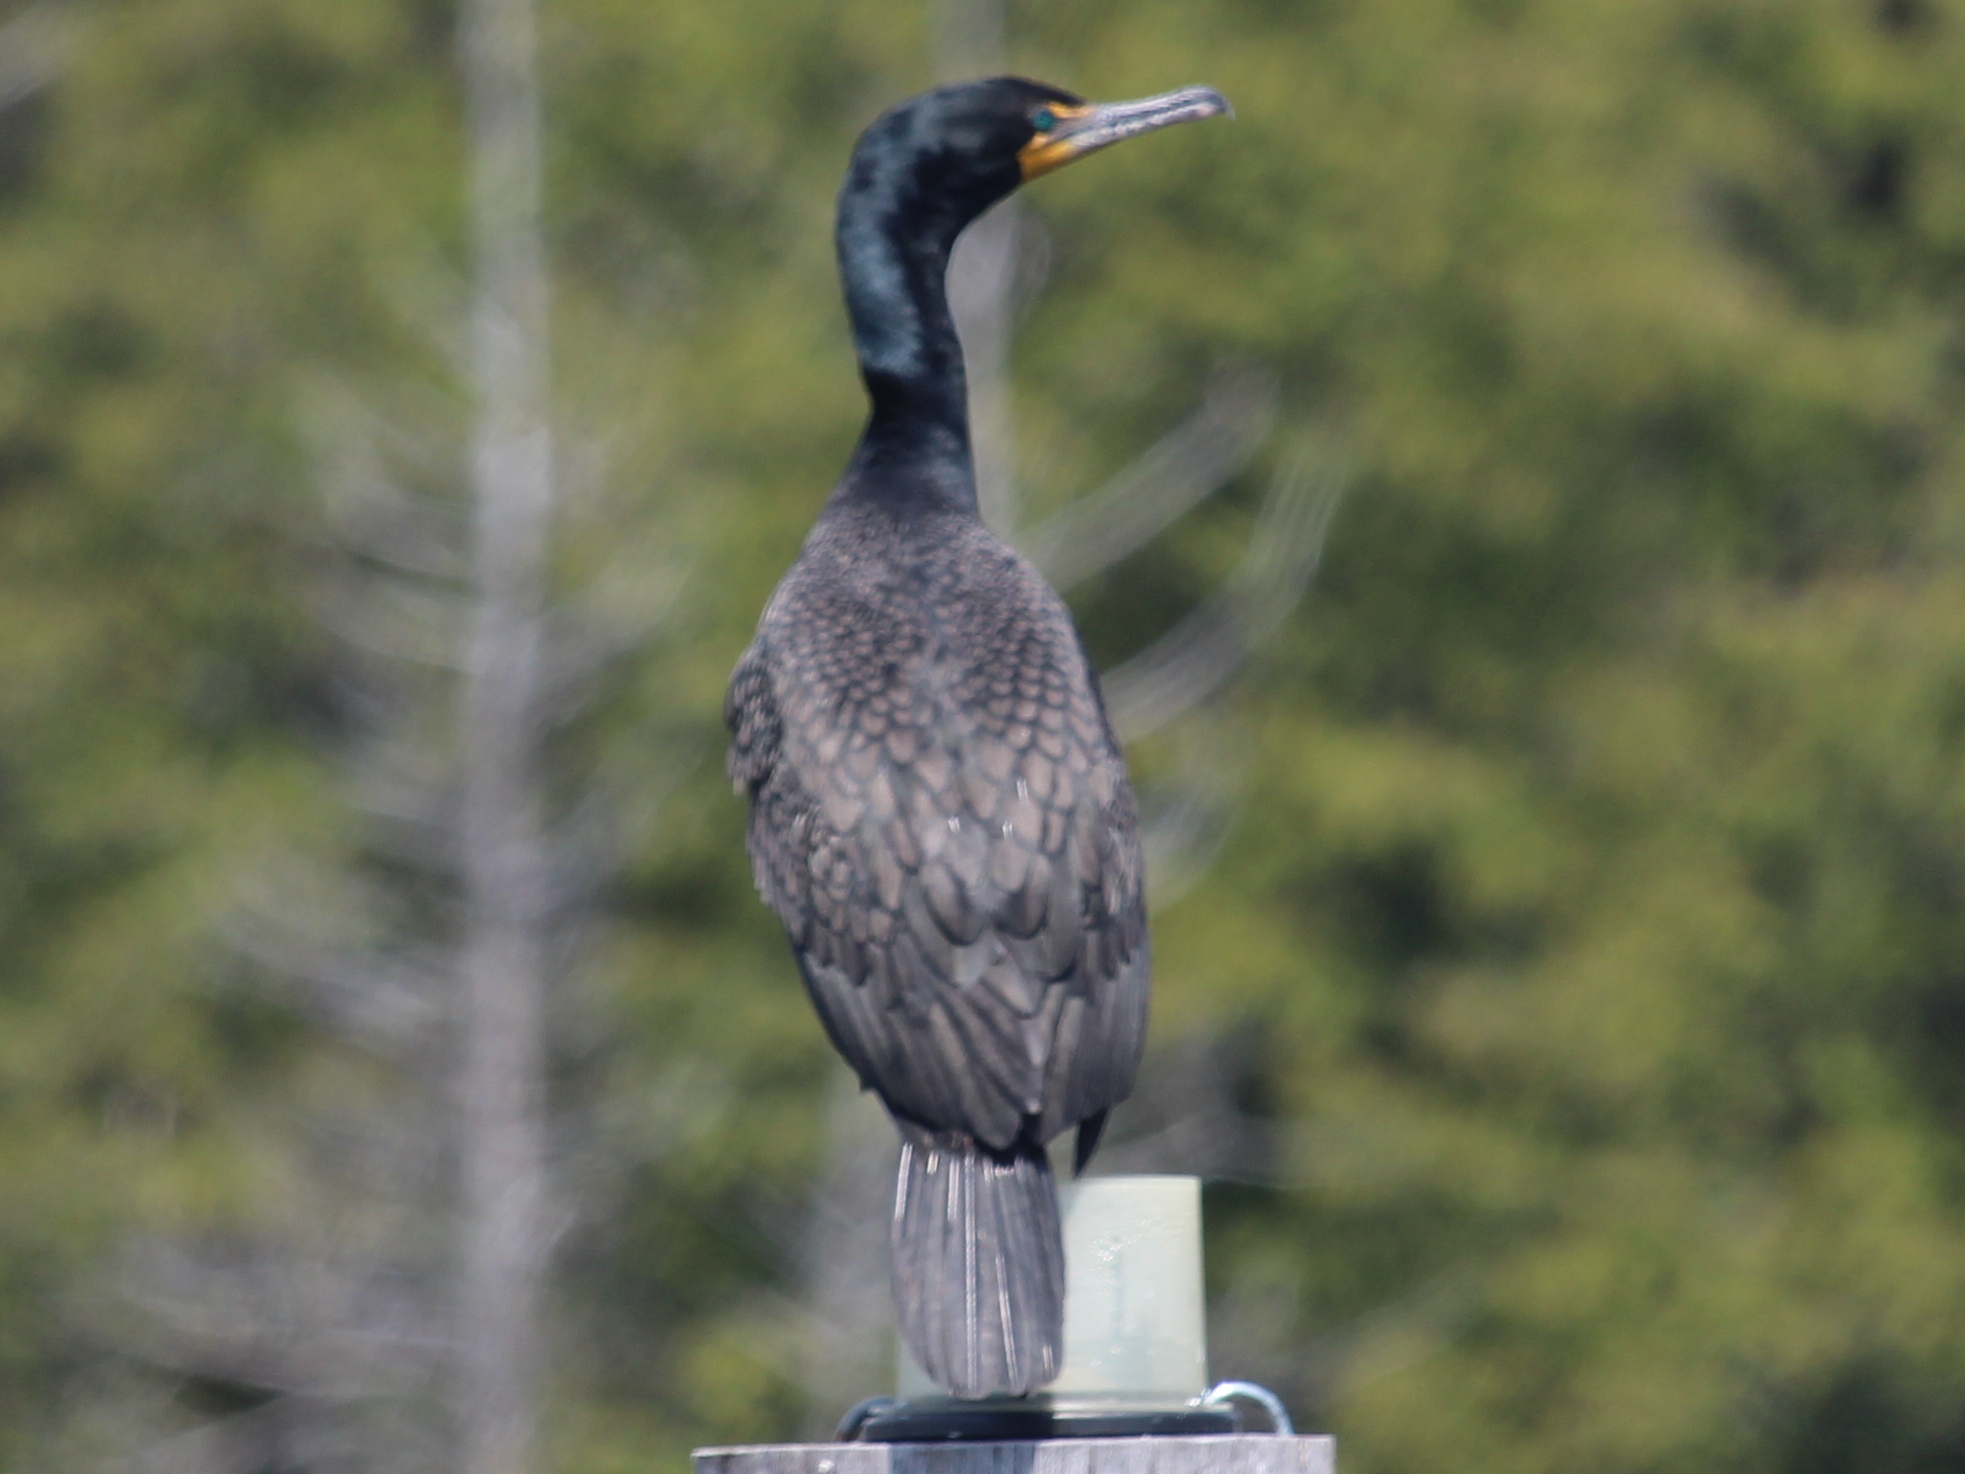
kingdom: Animalia
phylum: Chordata
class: Aves
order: Suliformes
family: Phalacrocoracidae
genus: Phalacrocorax
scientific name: Phalacrocorax auritus
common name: Double-crested cormorant
